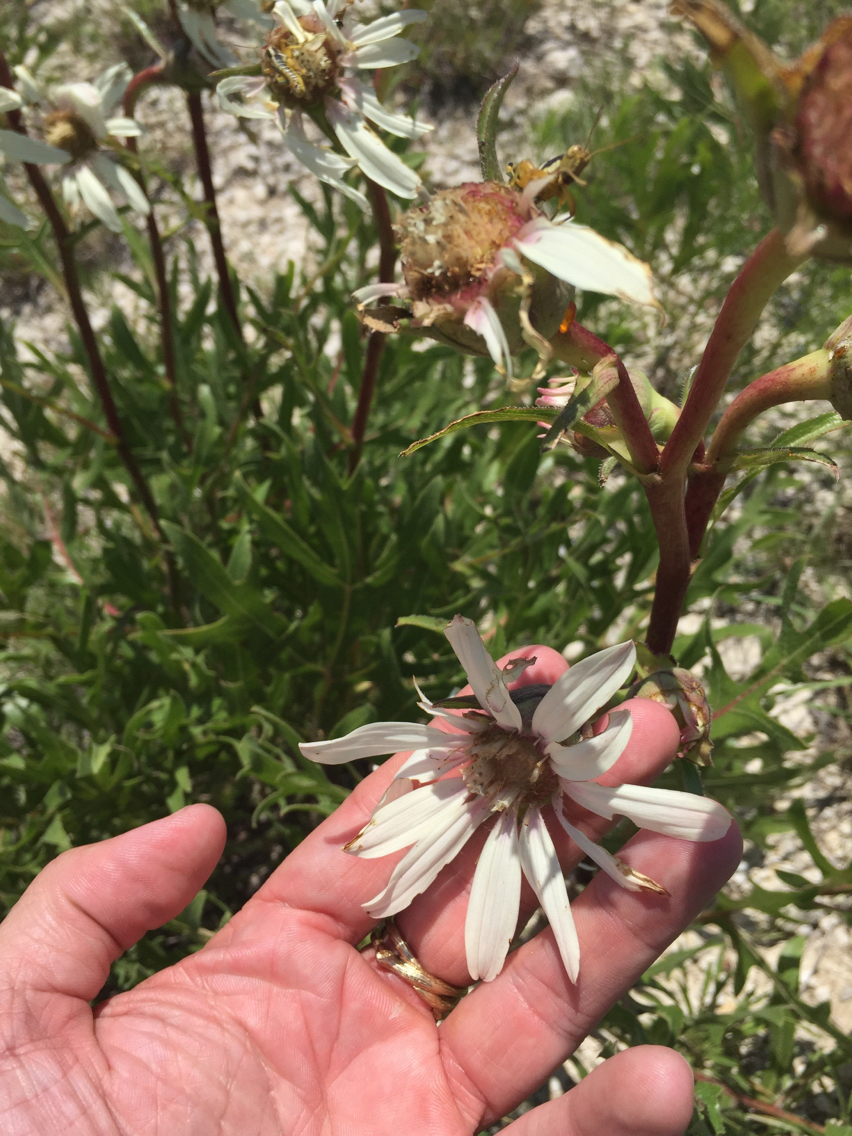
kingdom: Plantae
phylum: Tracheophyta
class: Magnoliopsida
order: Asterales
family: Asteraceae
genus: Silphium
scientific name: Silphium albiflorum
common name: White rosinweed
